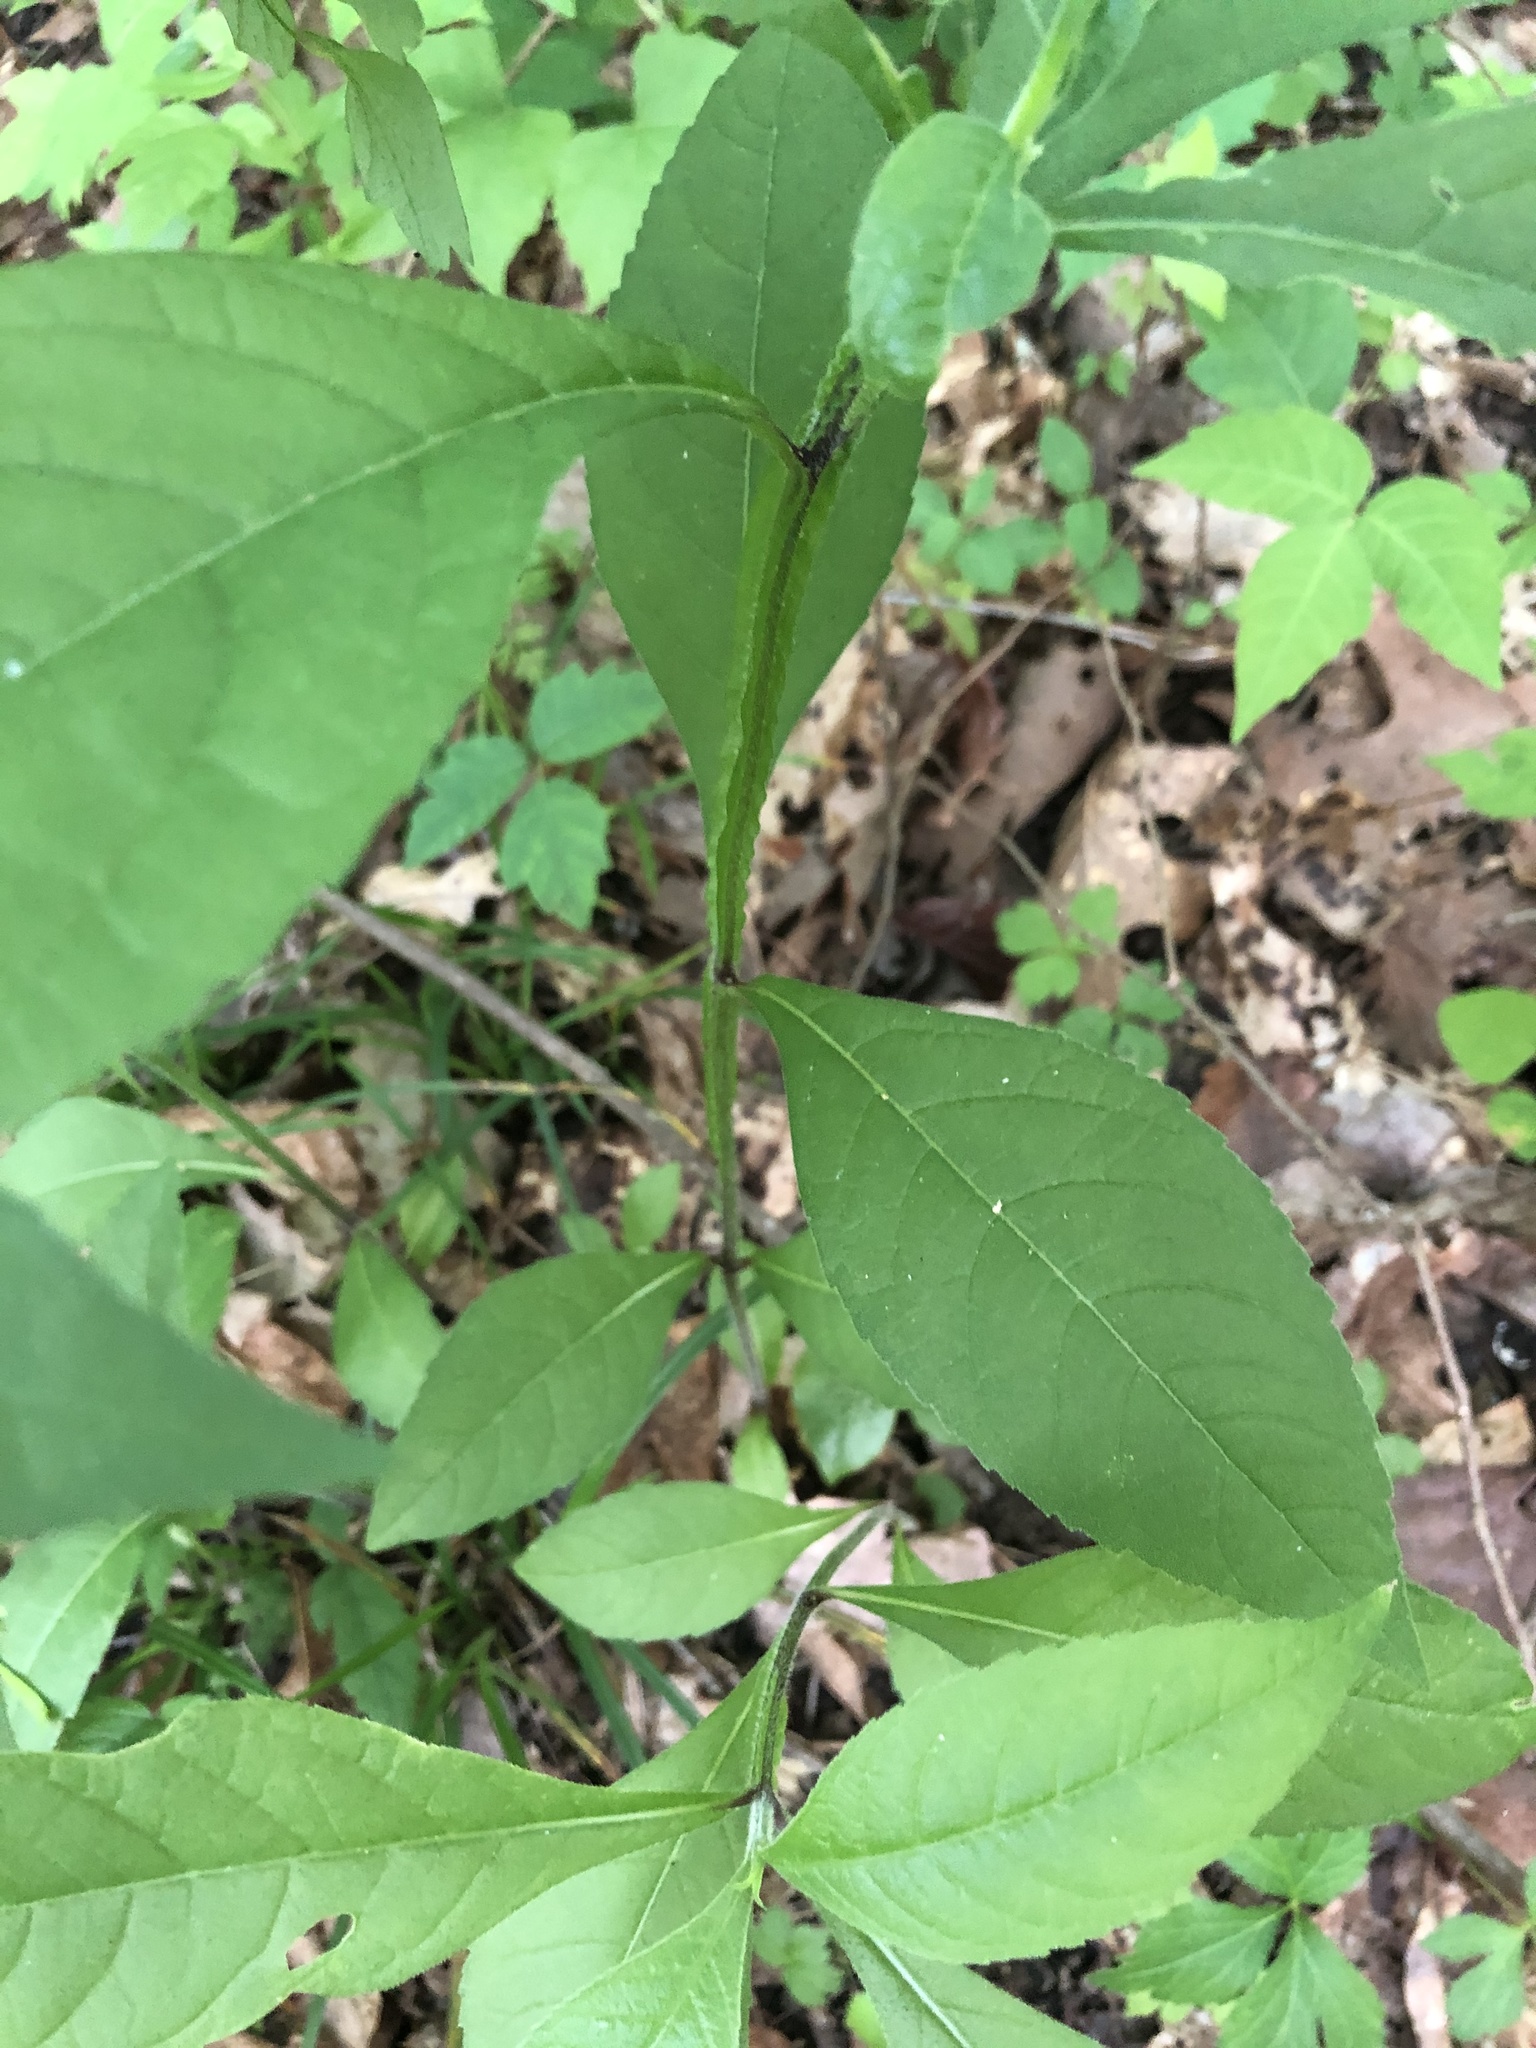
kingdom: Plantae
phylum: Tracheophyta
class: Magnoliopsida
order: Asterales
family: Asteraceae
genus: Verbesina
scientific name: Verbesina alternifolia
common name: Wingstem
